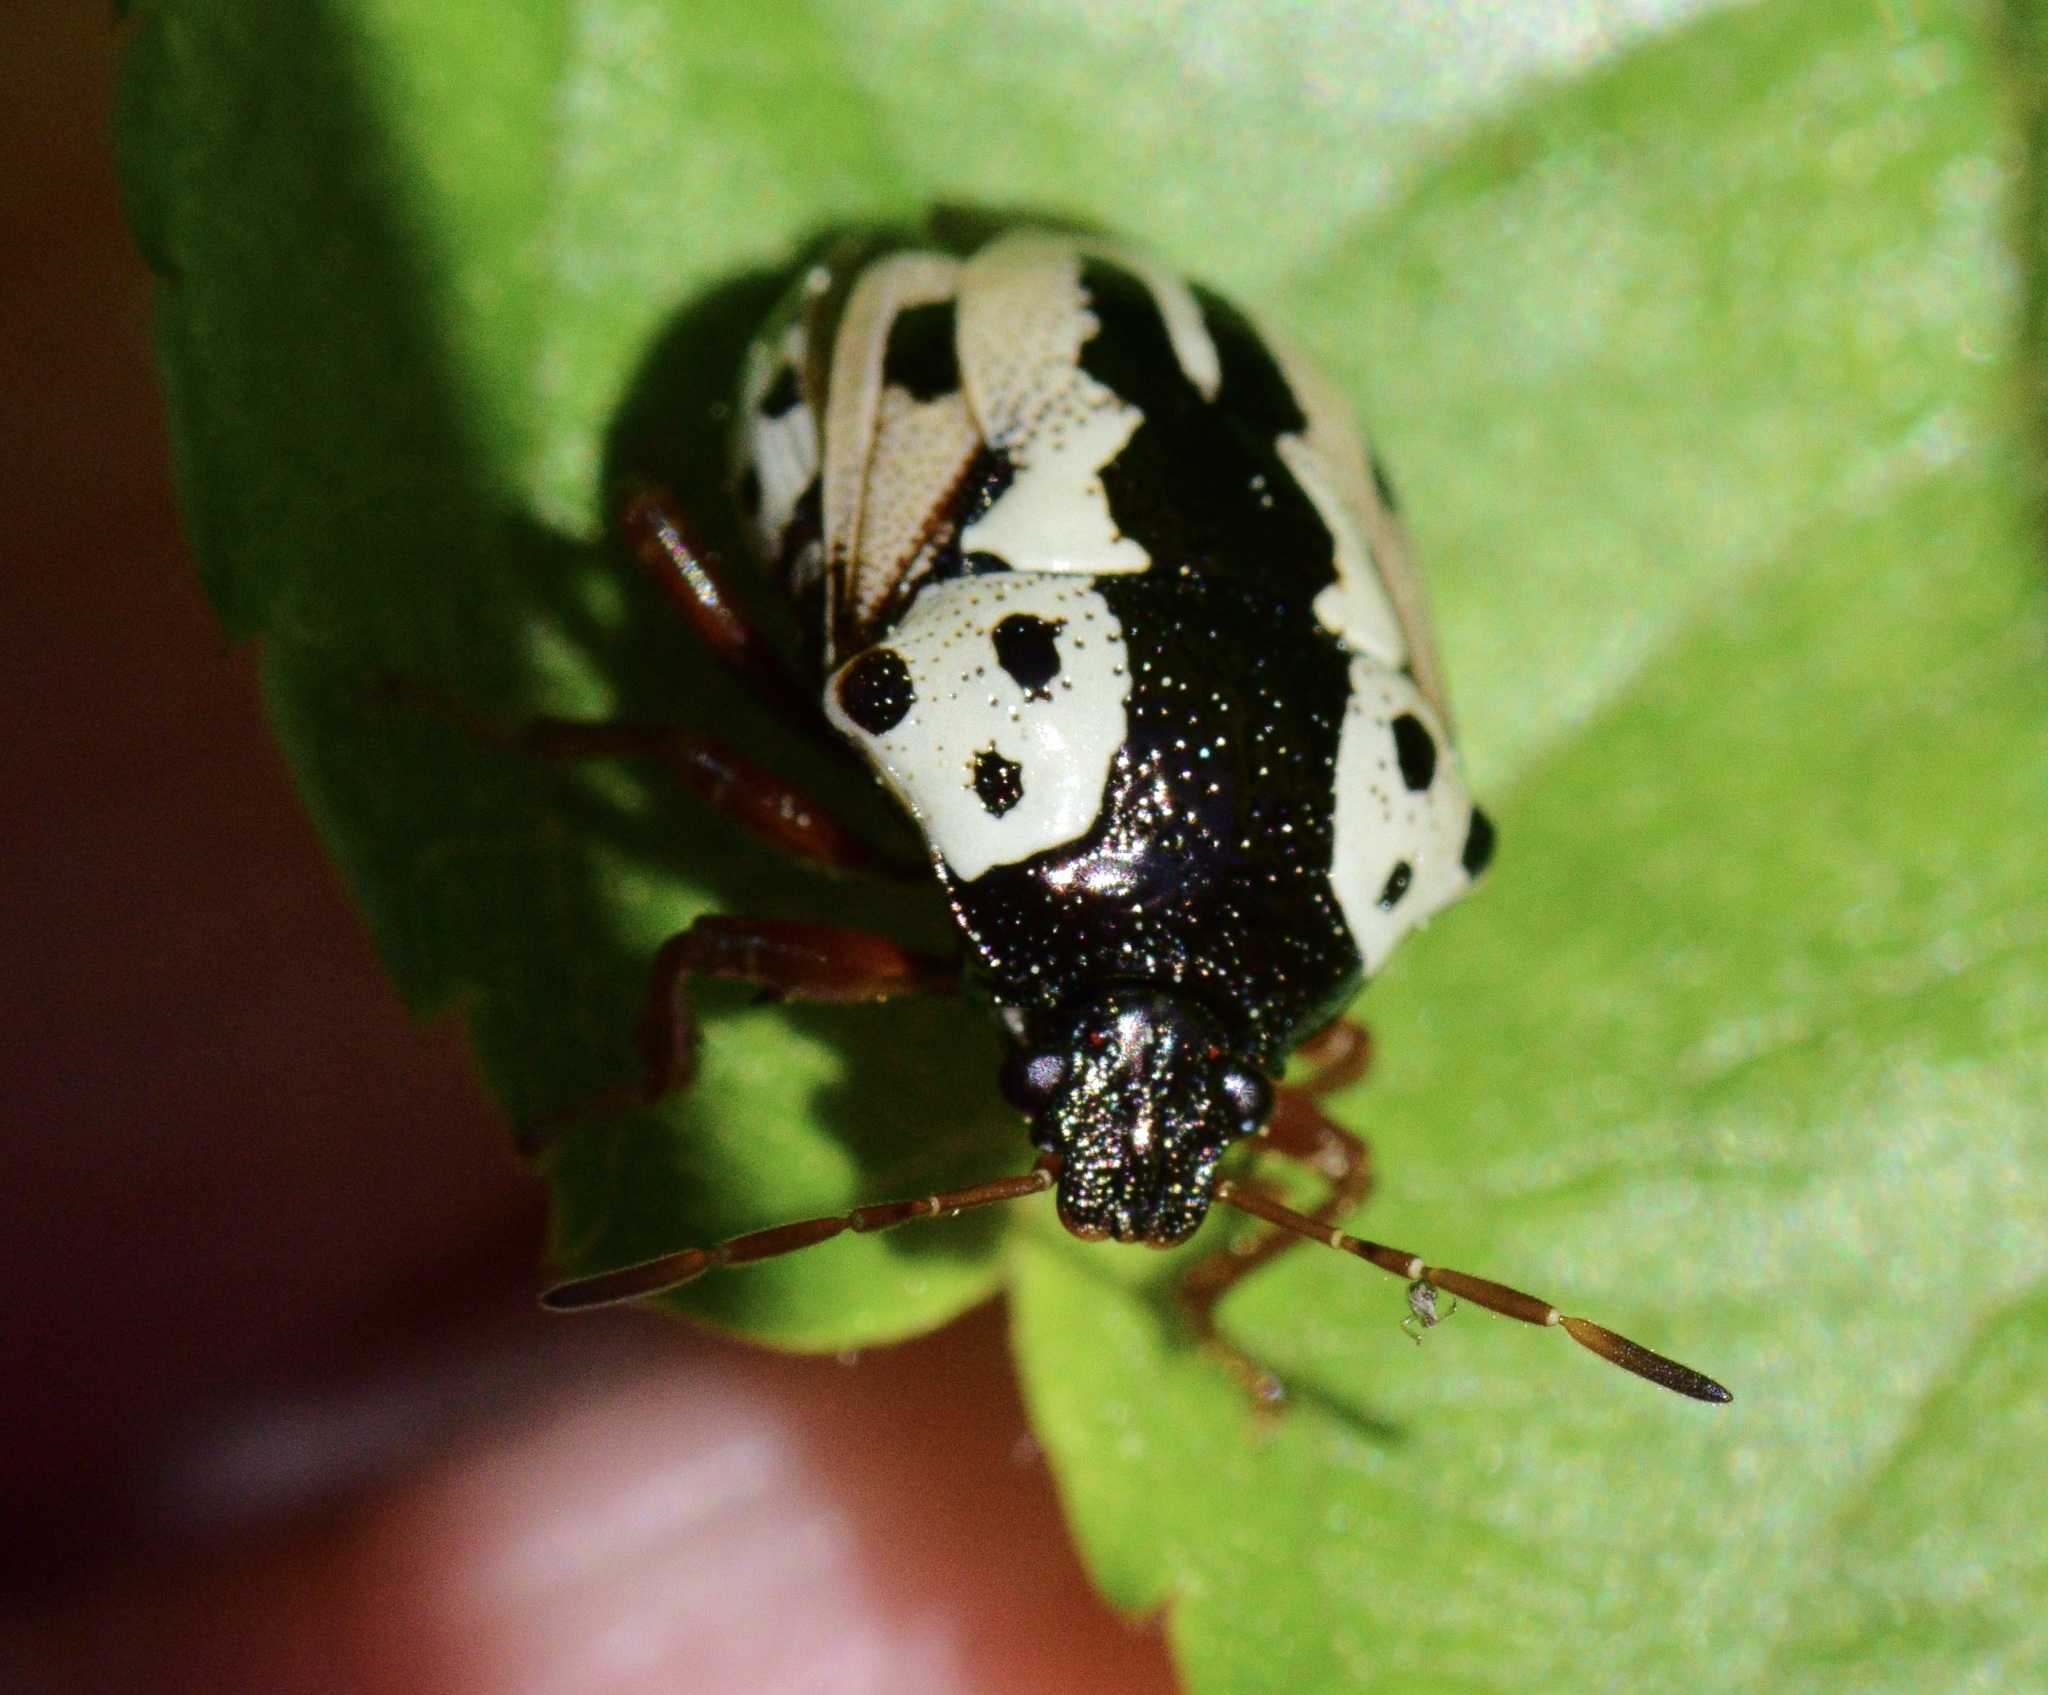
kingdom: Animalia
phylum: Arthropoda
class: Insecta
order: Hemiptera
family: Pentatomidae
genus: Stiretrus
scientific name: Stiretrus anchorago
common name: Anchor stink bug
